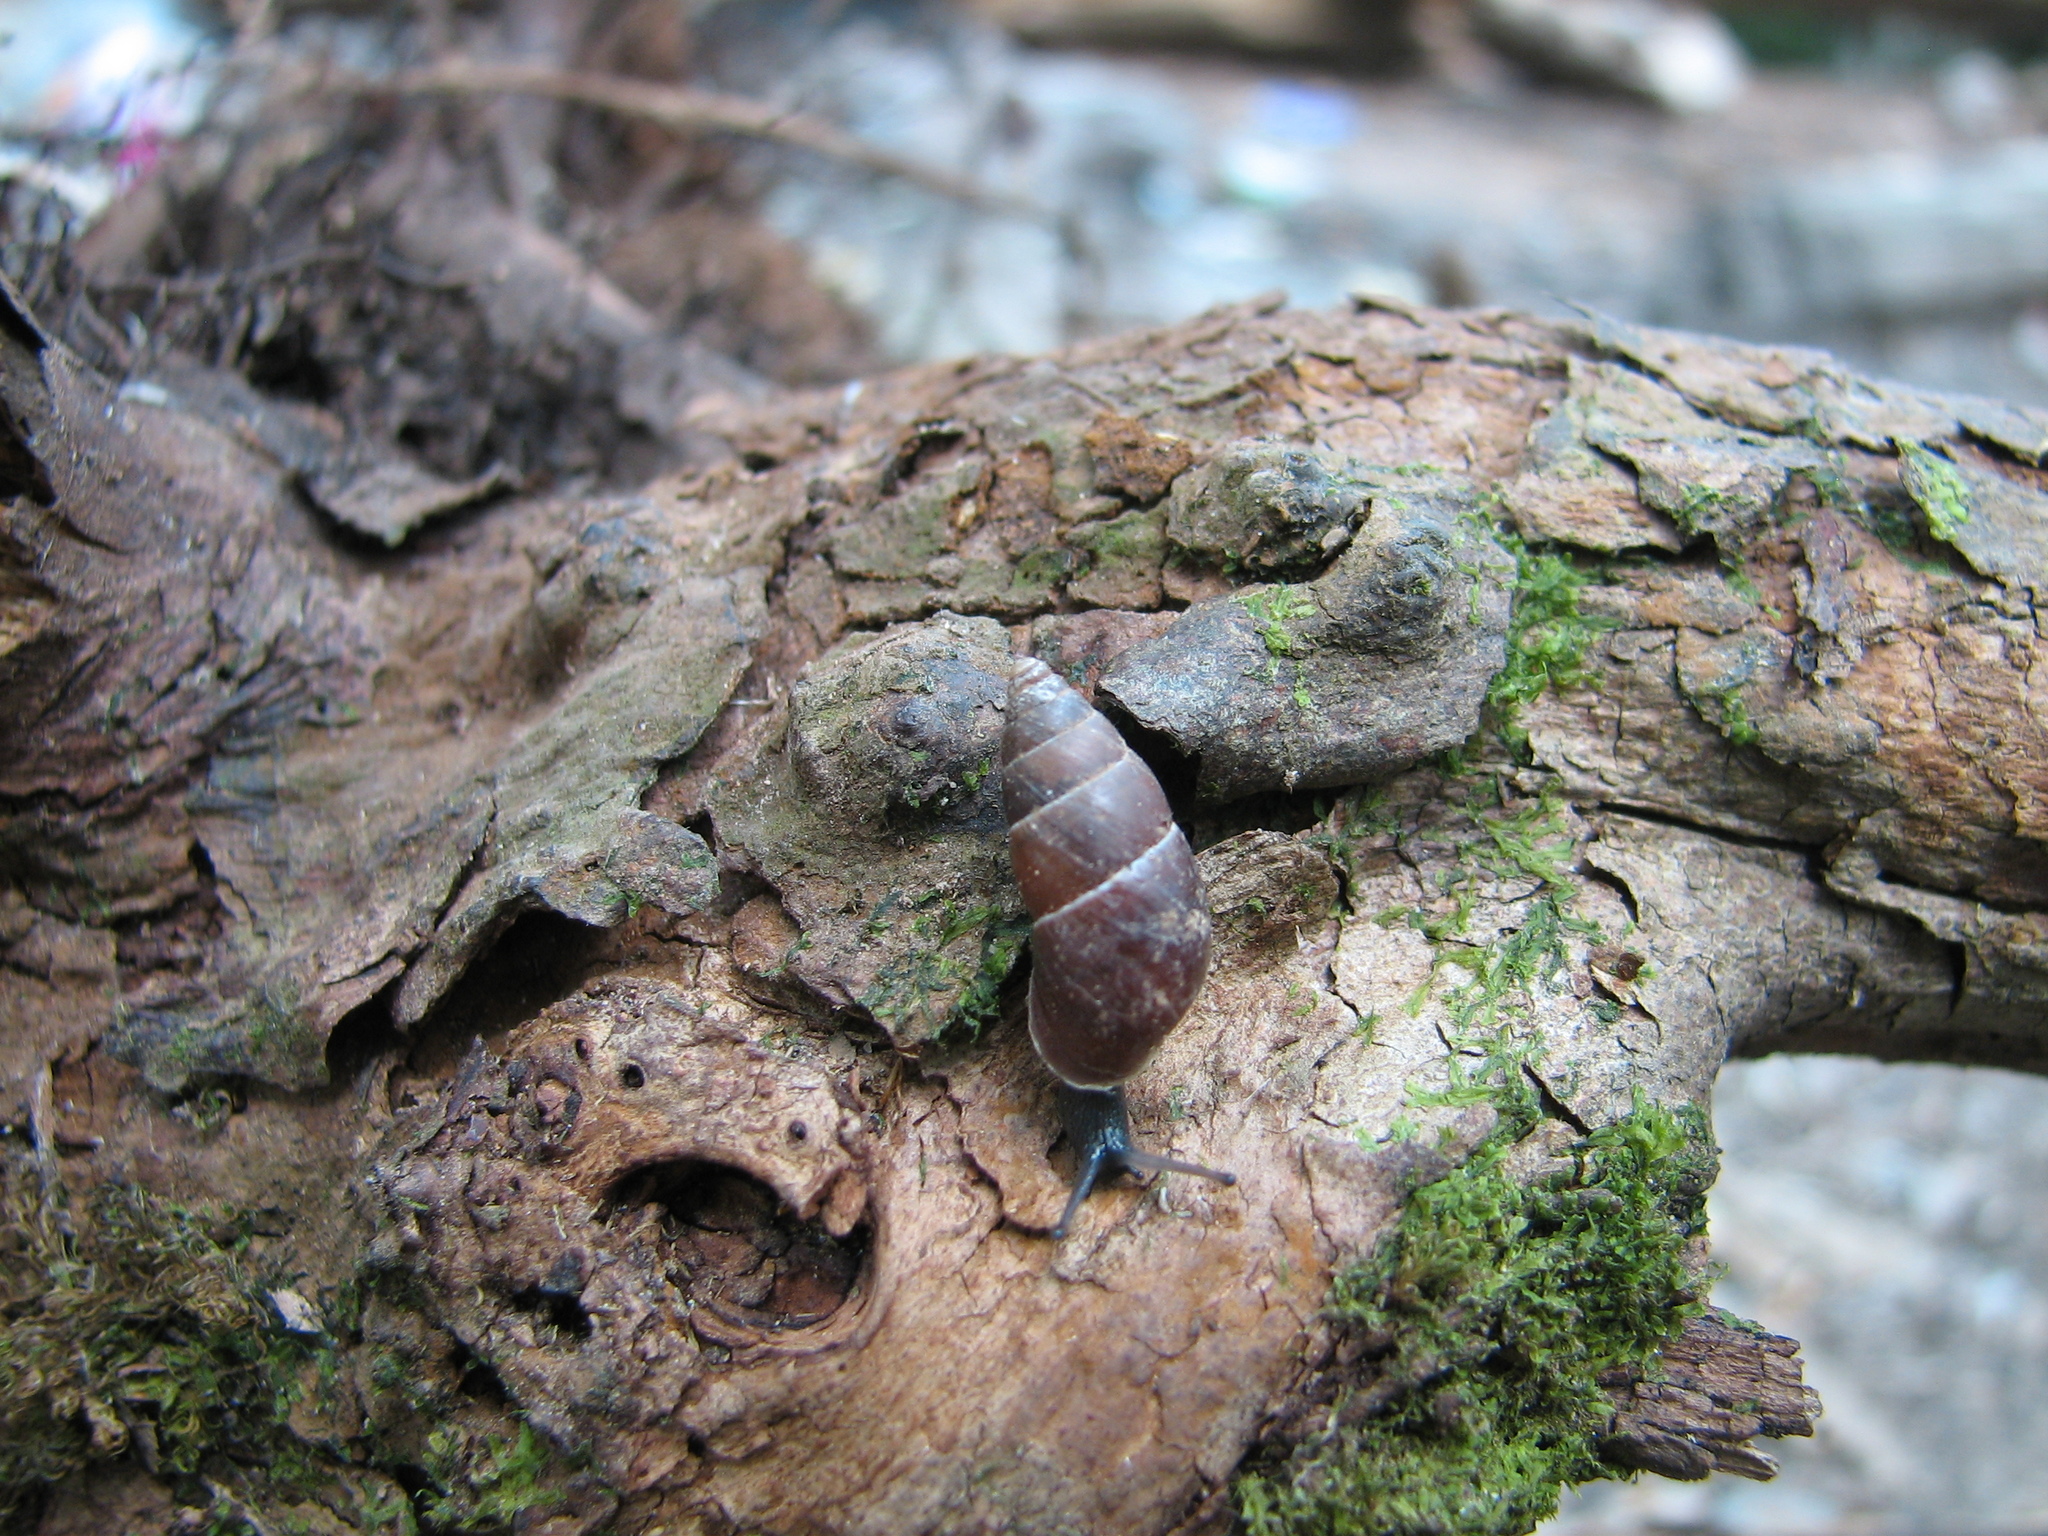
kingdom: Animalia
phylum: Mollusca
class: Gastropoda
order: Stylommatophora
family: Enidae
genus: Peristoma
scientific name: Peristoma rupestre
